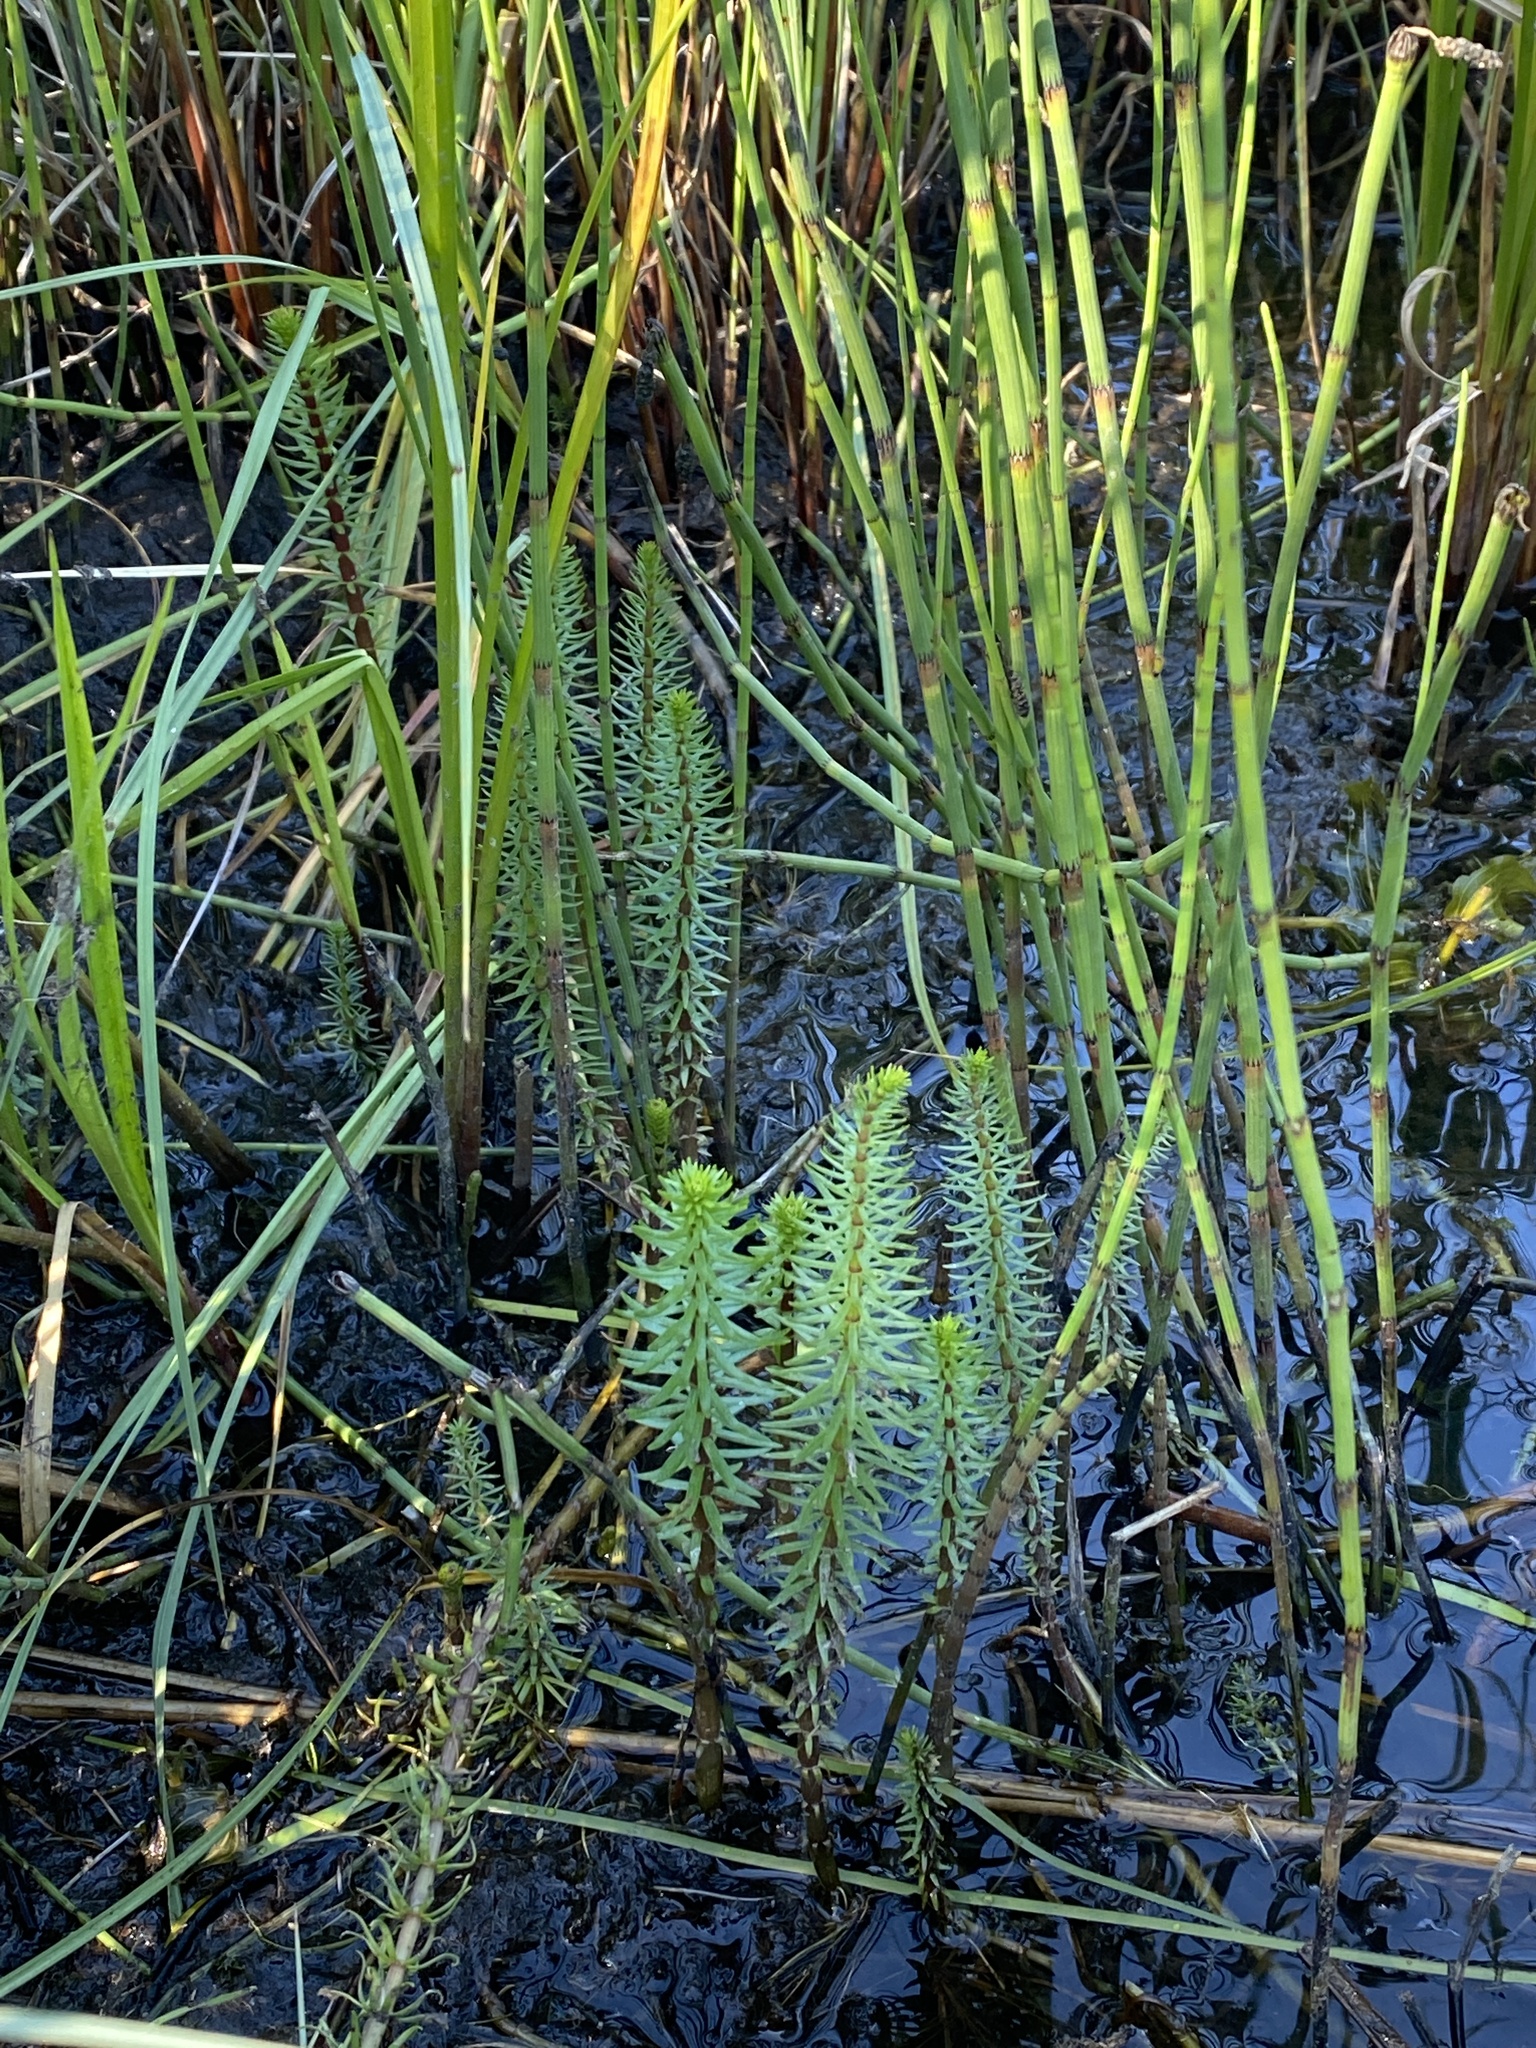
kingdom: Plantae
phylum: Tracheophyta
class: Magnoliopsida
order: Lamiales
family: Plantaginaceae
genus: Hippuris
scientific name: Hippuris vulgaris
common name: Mare's-tail
